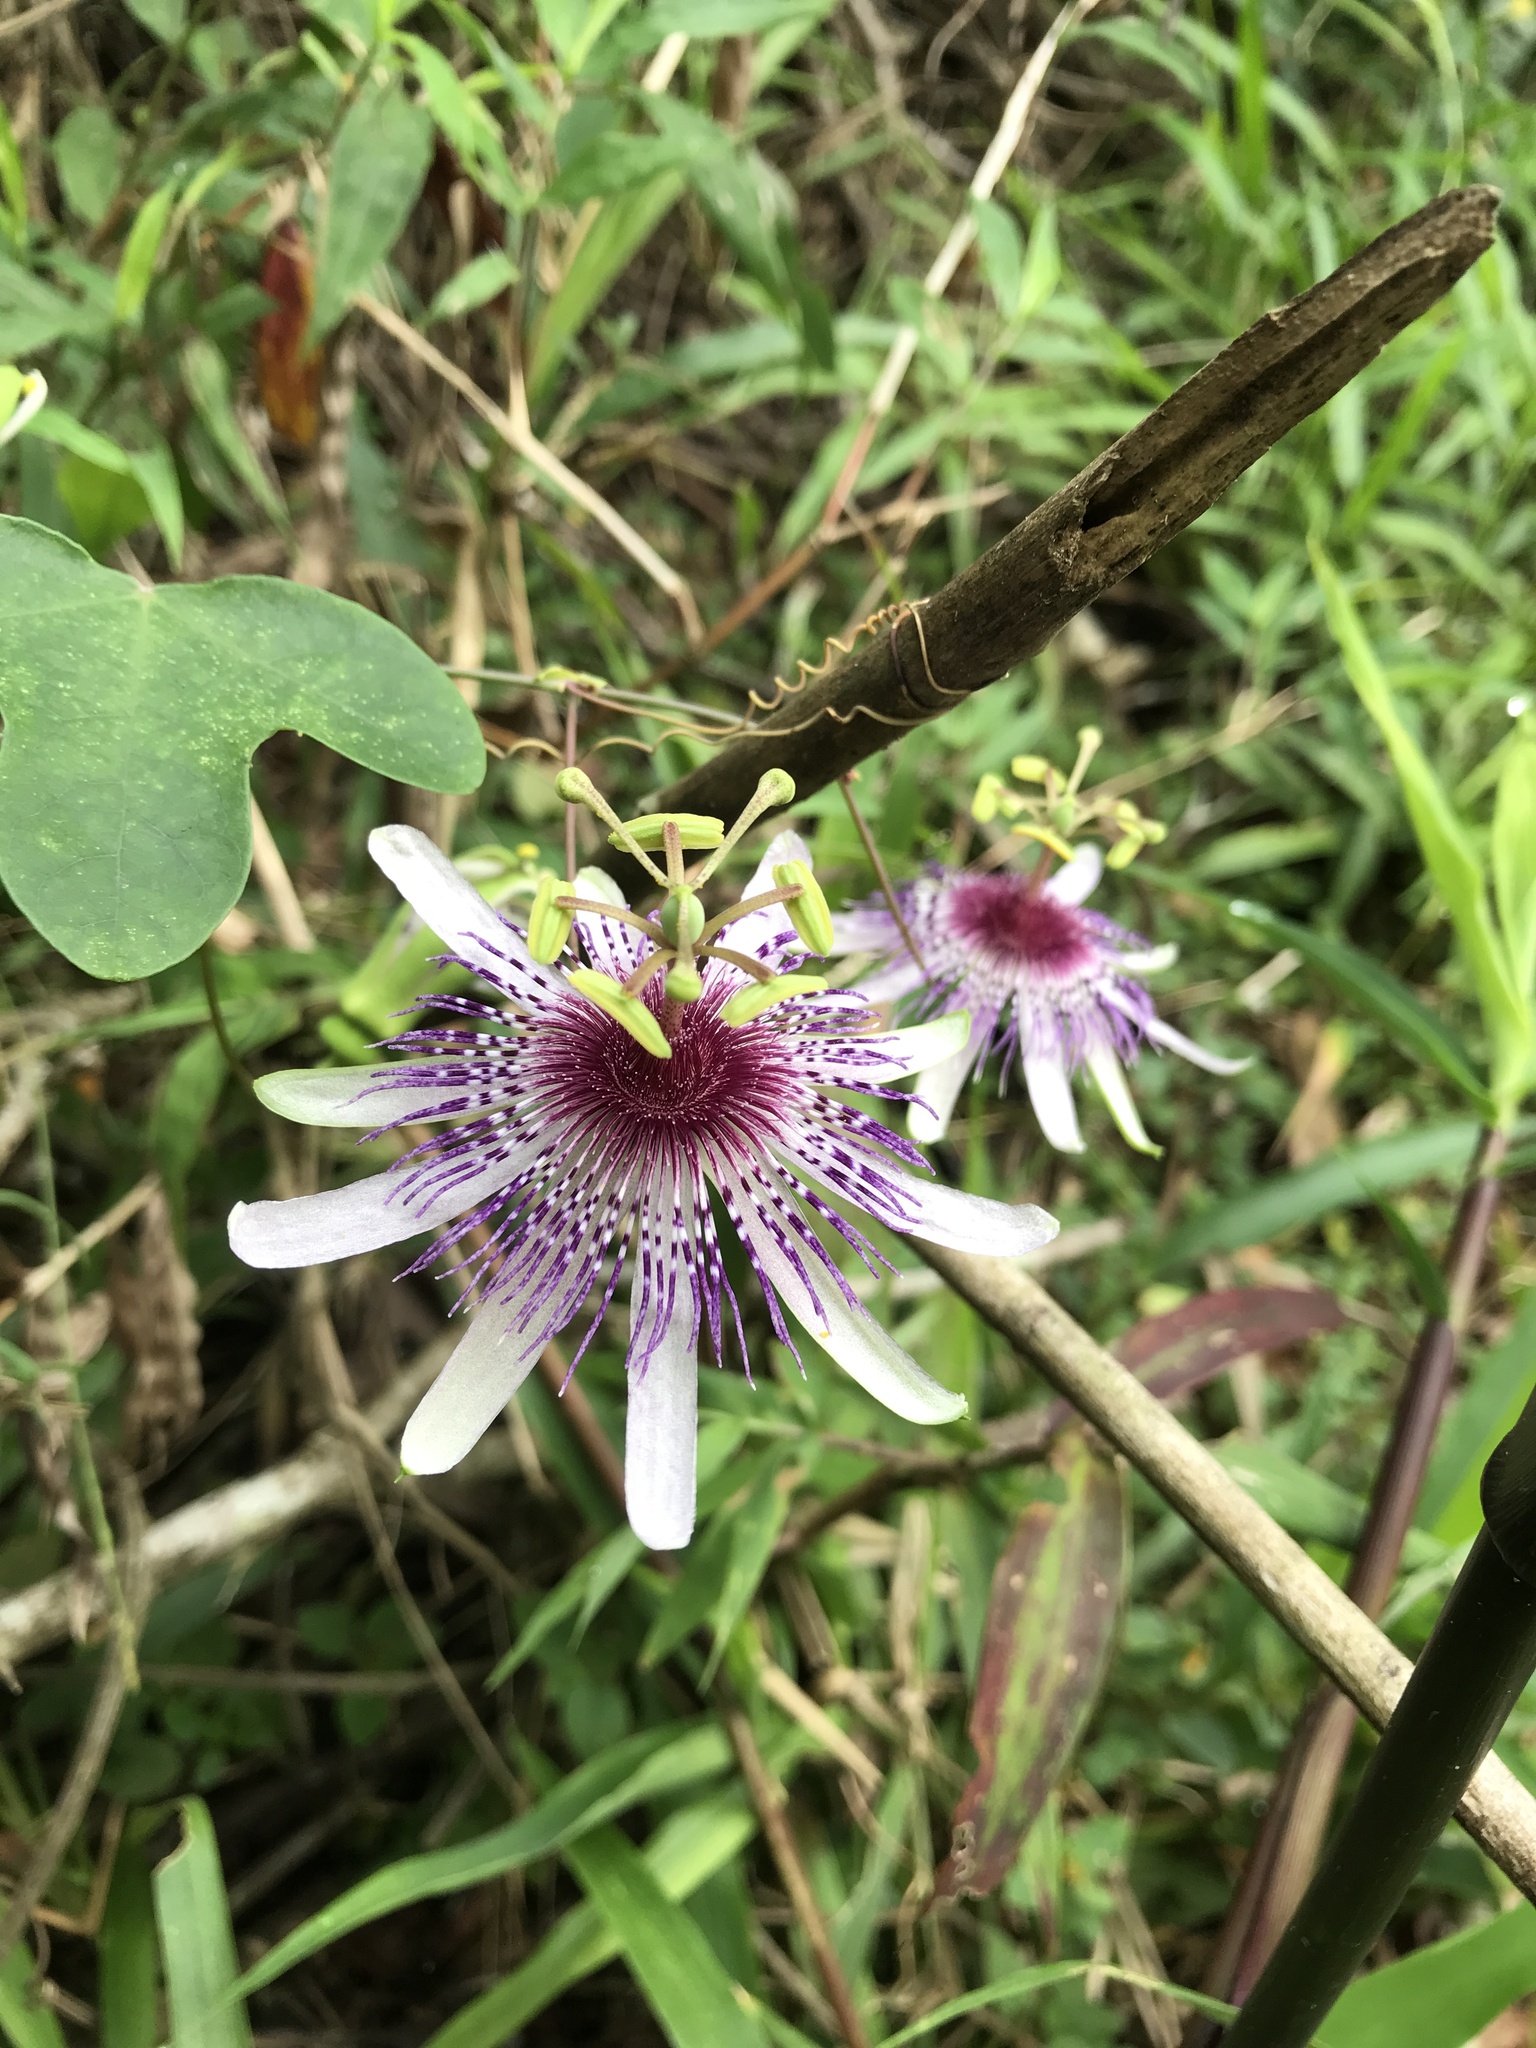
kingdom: Plantae
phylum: Tracheophyta
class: Magnoliopsida
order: Malpighiales
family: Passifloraceae
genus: Passiflora
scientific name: Passiflora watsoniana
